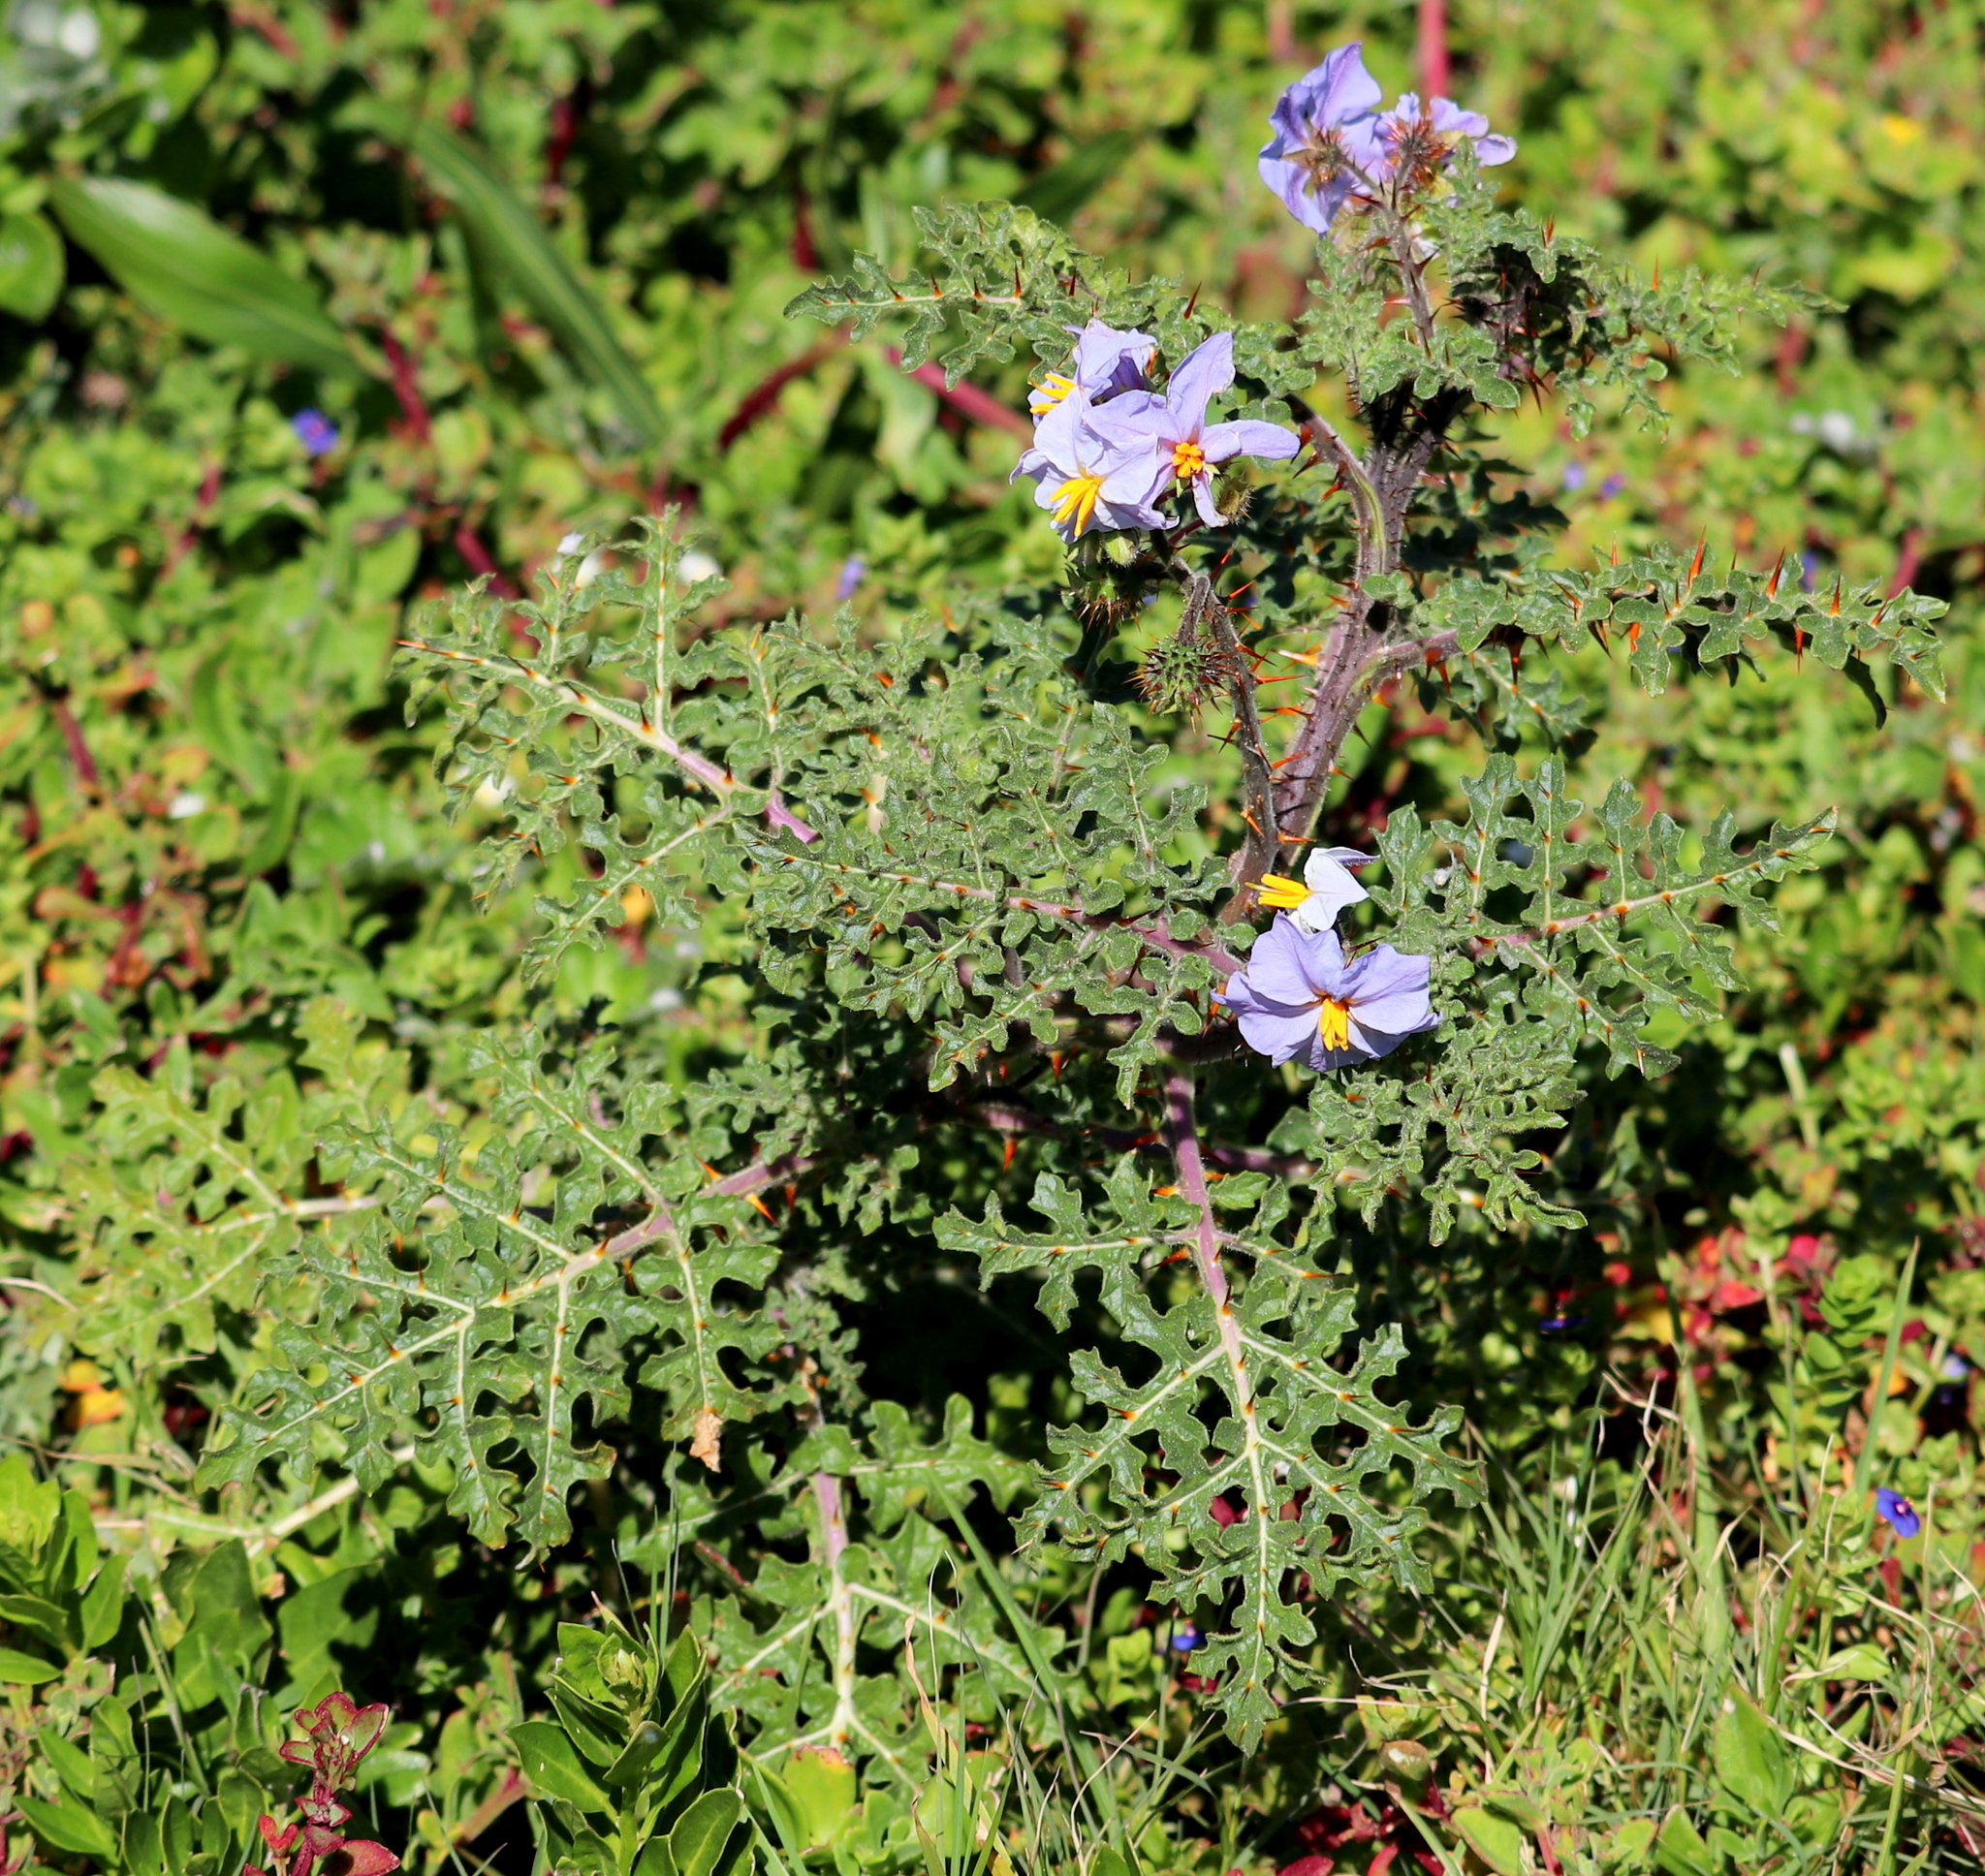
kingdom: Plantae
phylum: Tracheophyta
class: Magnoliopsida
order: Solanales
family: Solanaceae
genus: Solanum
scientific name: Solanum sisymbriifolium
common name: Red buffalo-bur
